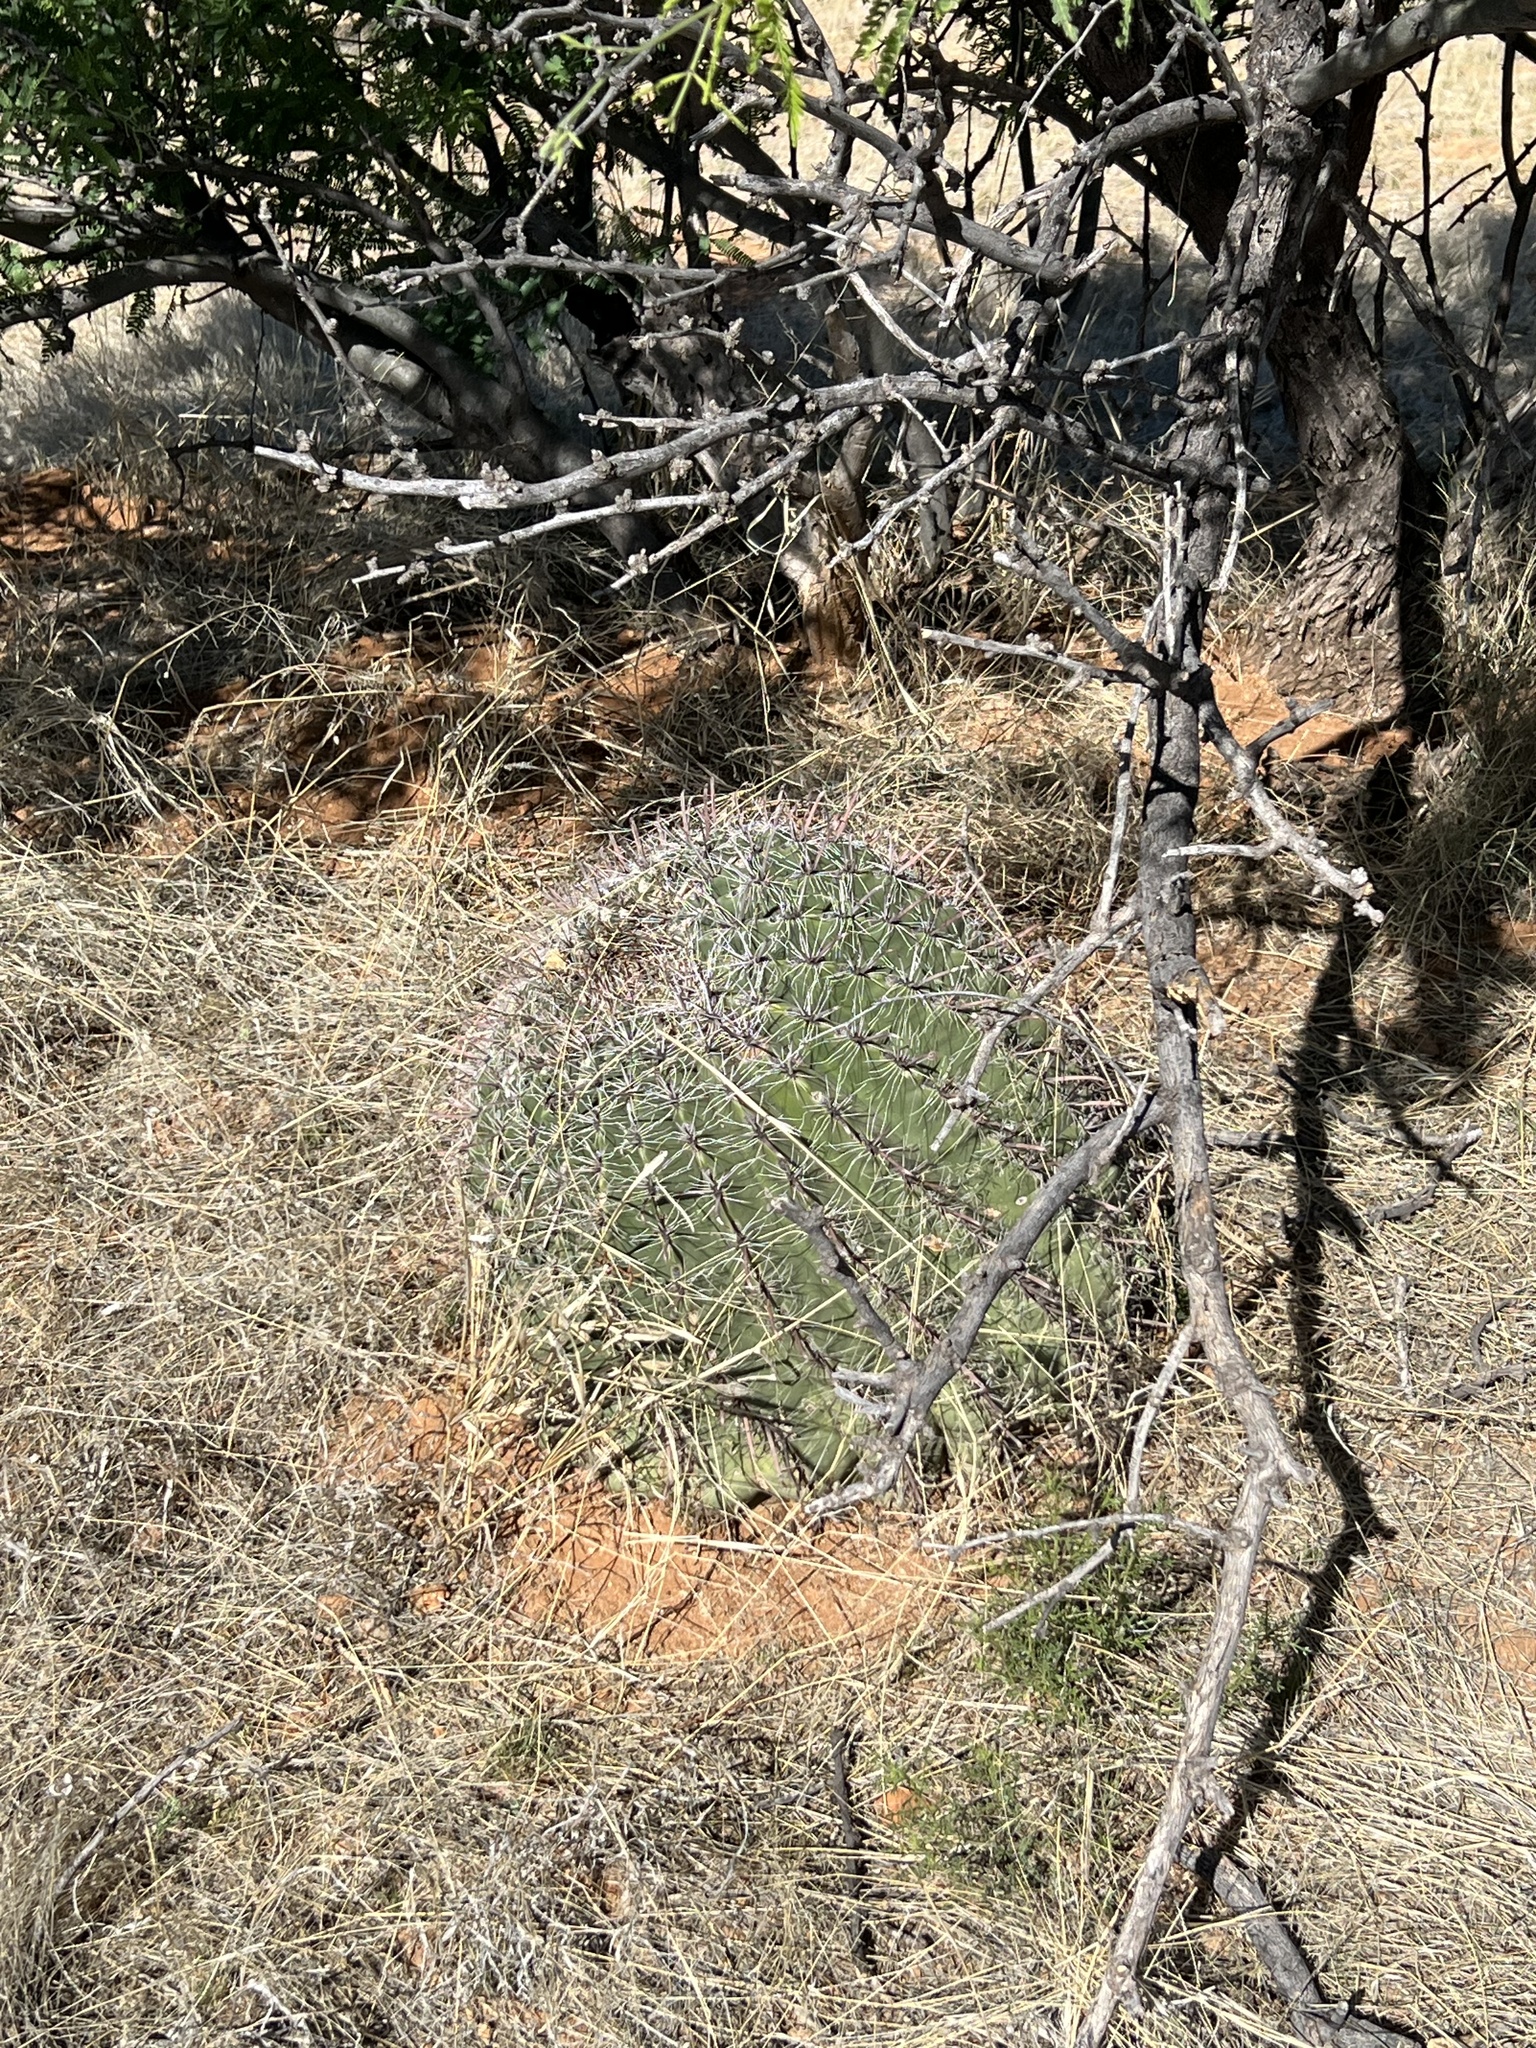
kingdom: Plantae
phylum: Tracheophyta
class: Magnoliopsida
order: Caryophyllales
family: Cactaceae
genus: Ferocactus
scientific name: Ferocactus wislizeni
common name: Candy barrel cactus
